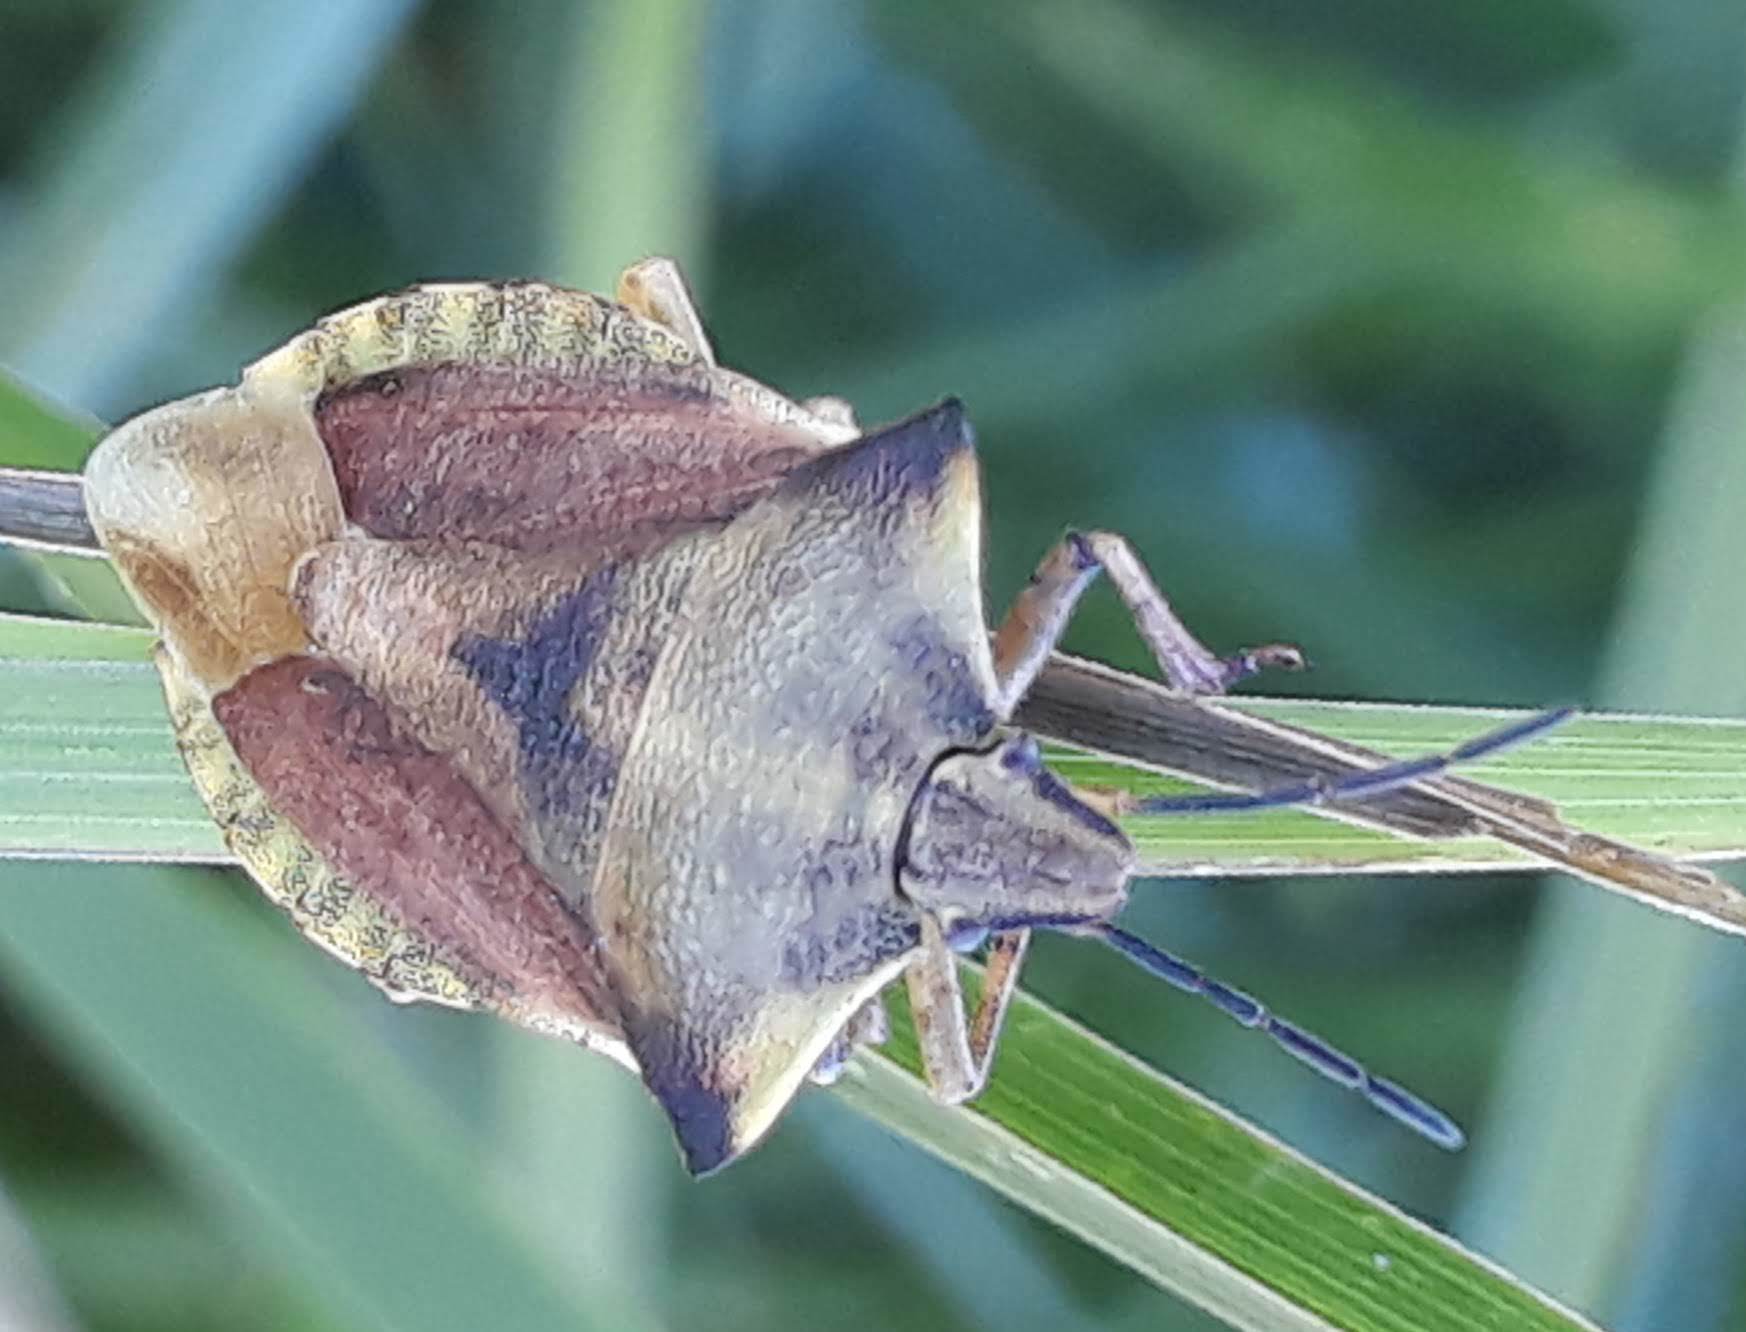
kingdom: Animalia
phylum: Arthropoda
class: Insecta
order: Hemiptera
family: Pentatomidae
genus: Carpocoris
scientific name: Carpocoris fuscispinus
